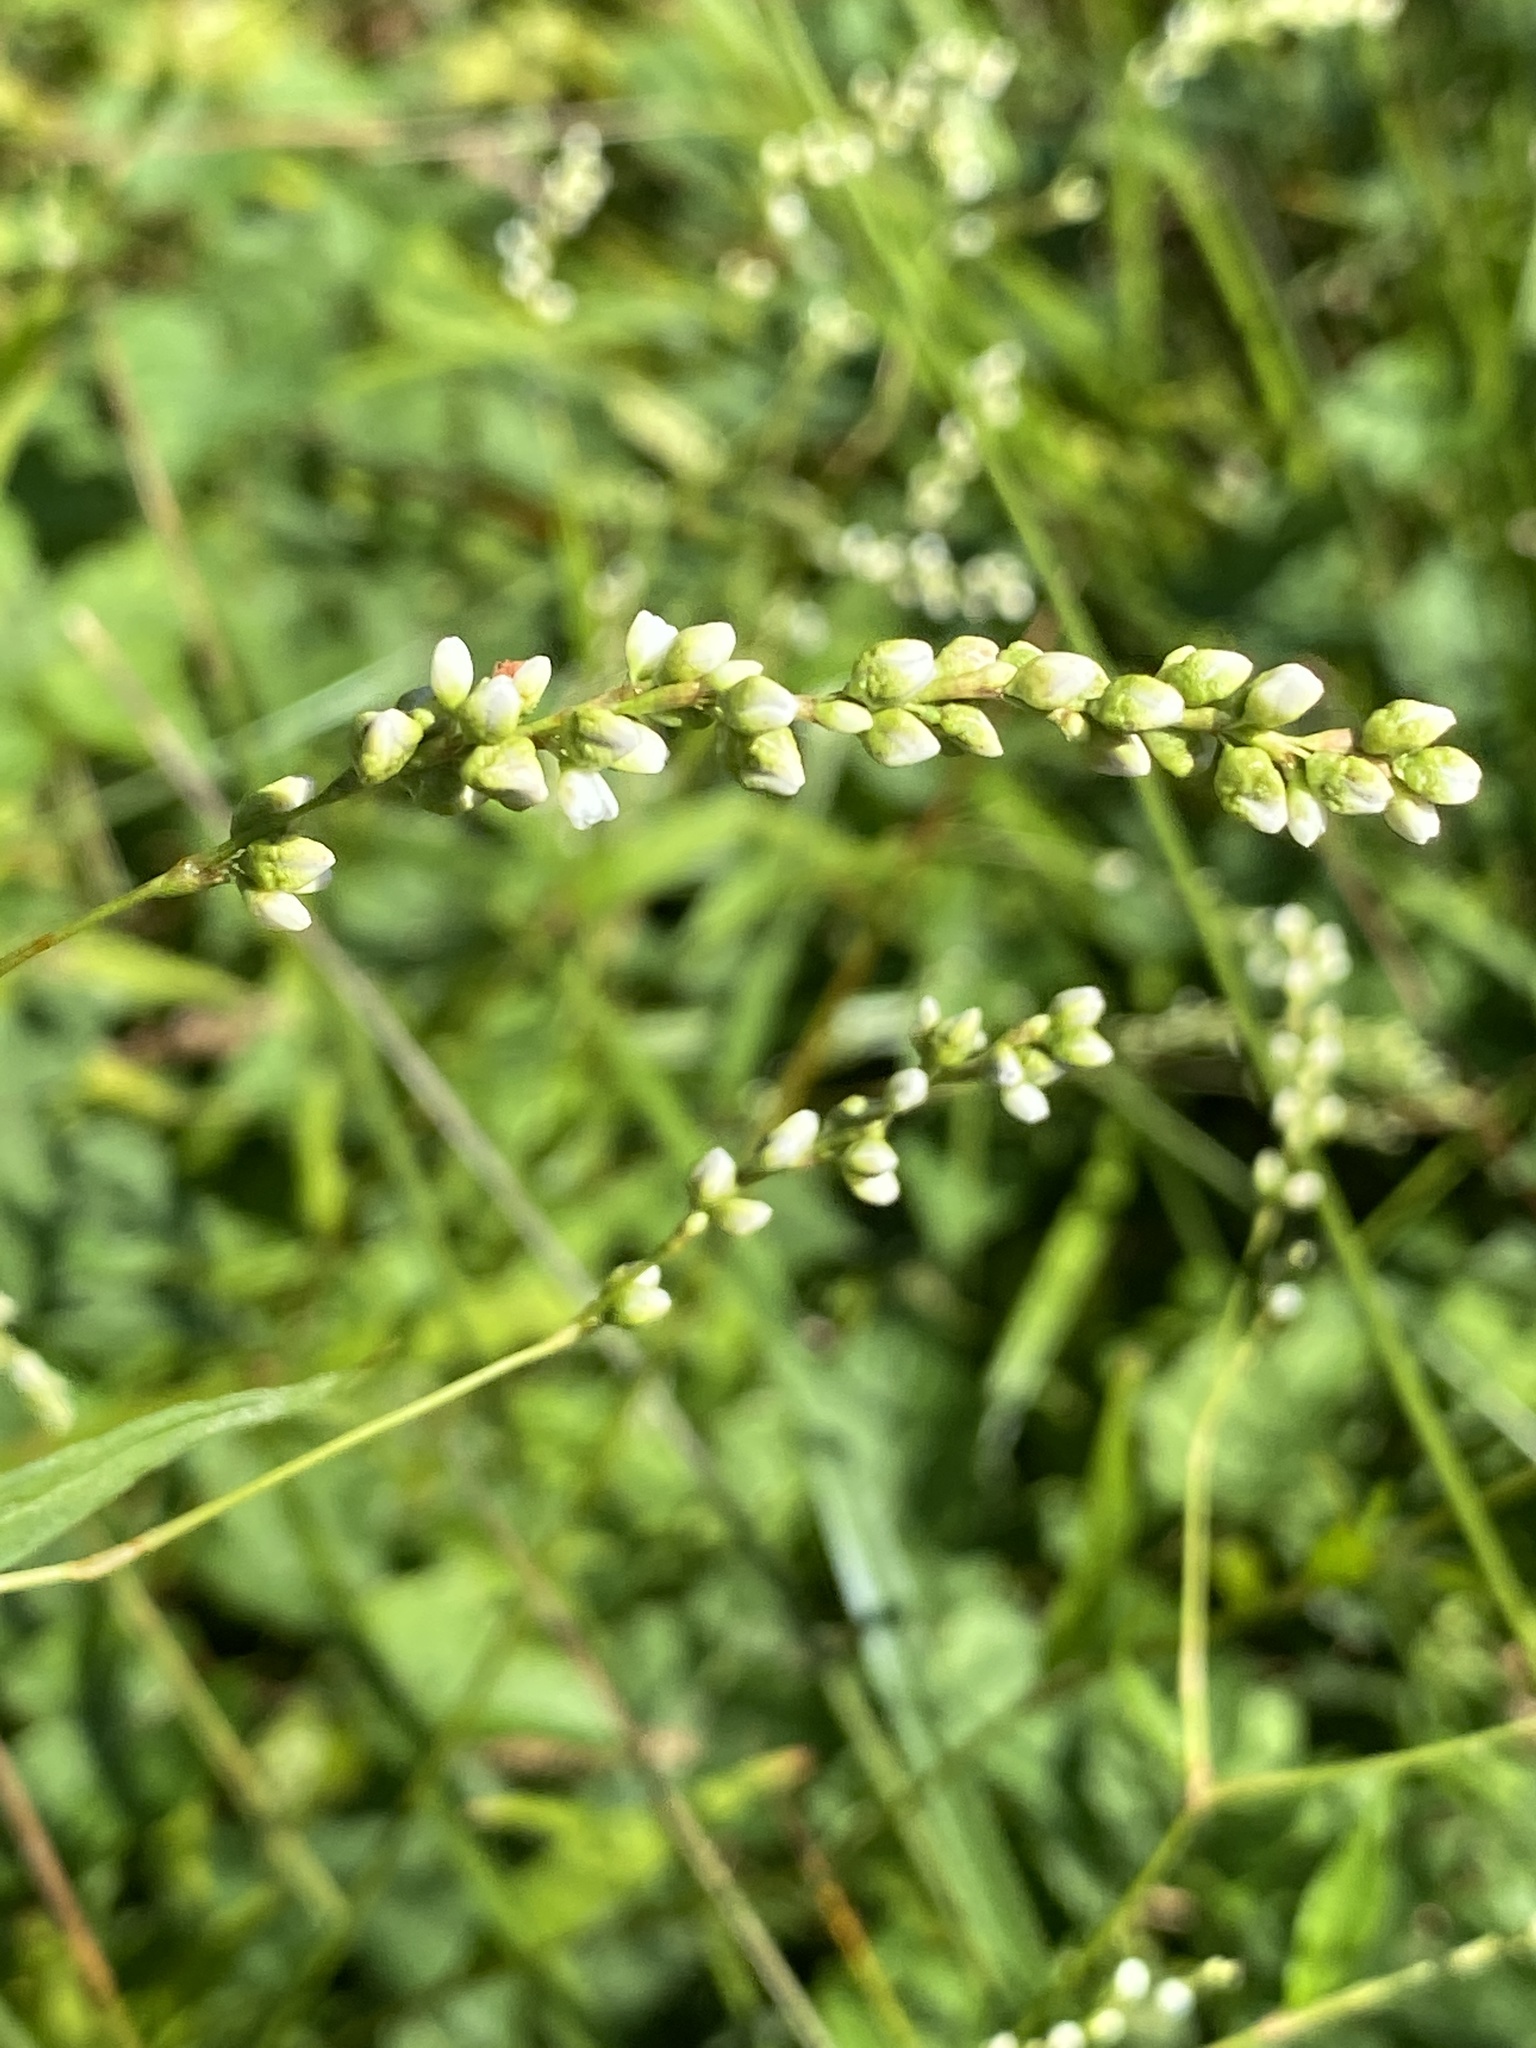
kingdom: Plantae
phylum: Tracheophyta
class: Magnoliopsida
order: Caryophyllales
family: Polygonaceae
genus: Persicaria
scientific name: Persicaria punctata
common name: Dotted smartweed
